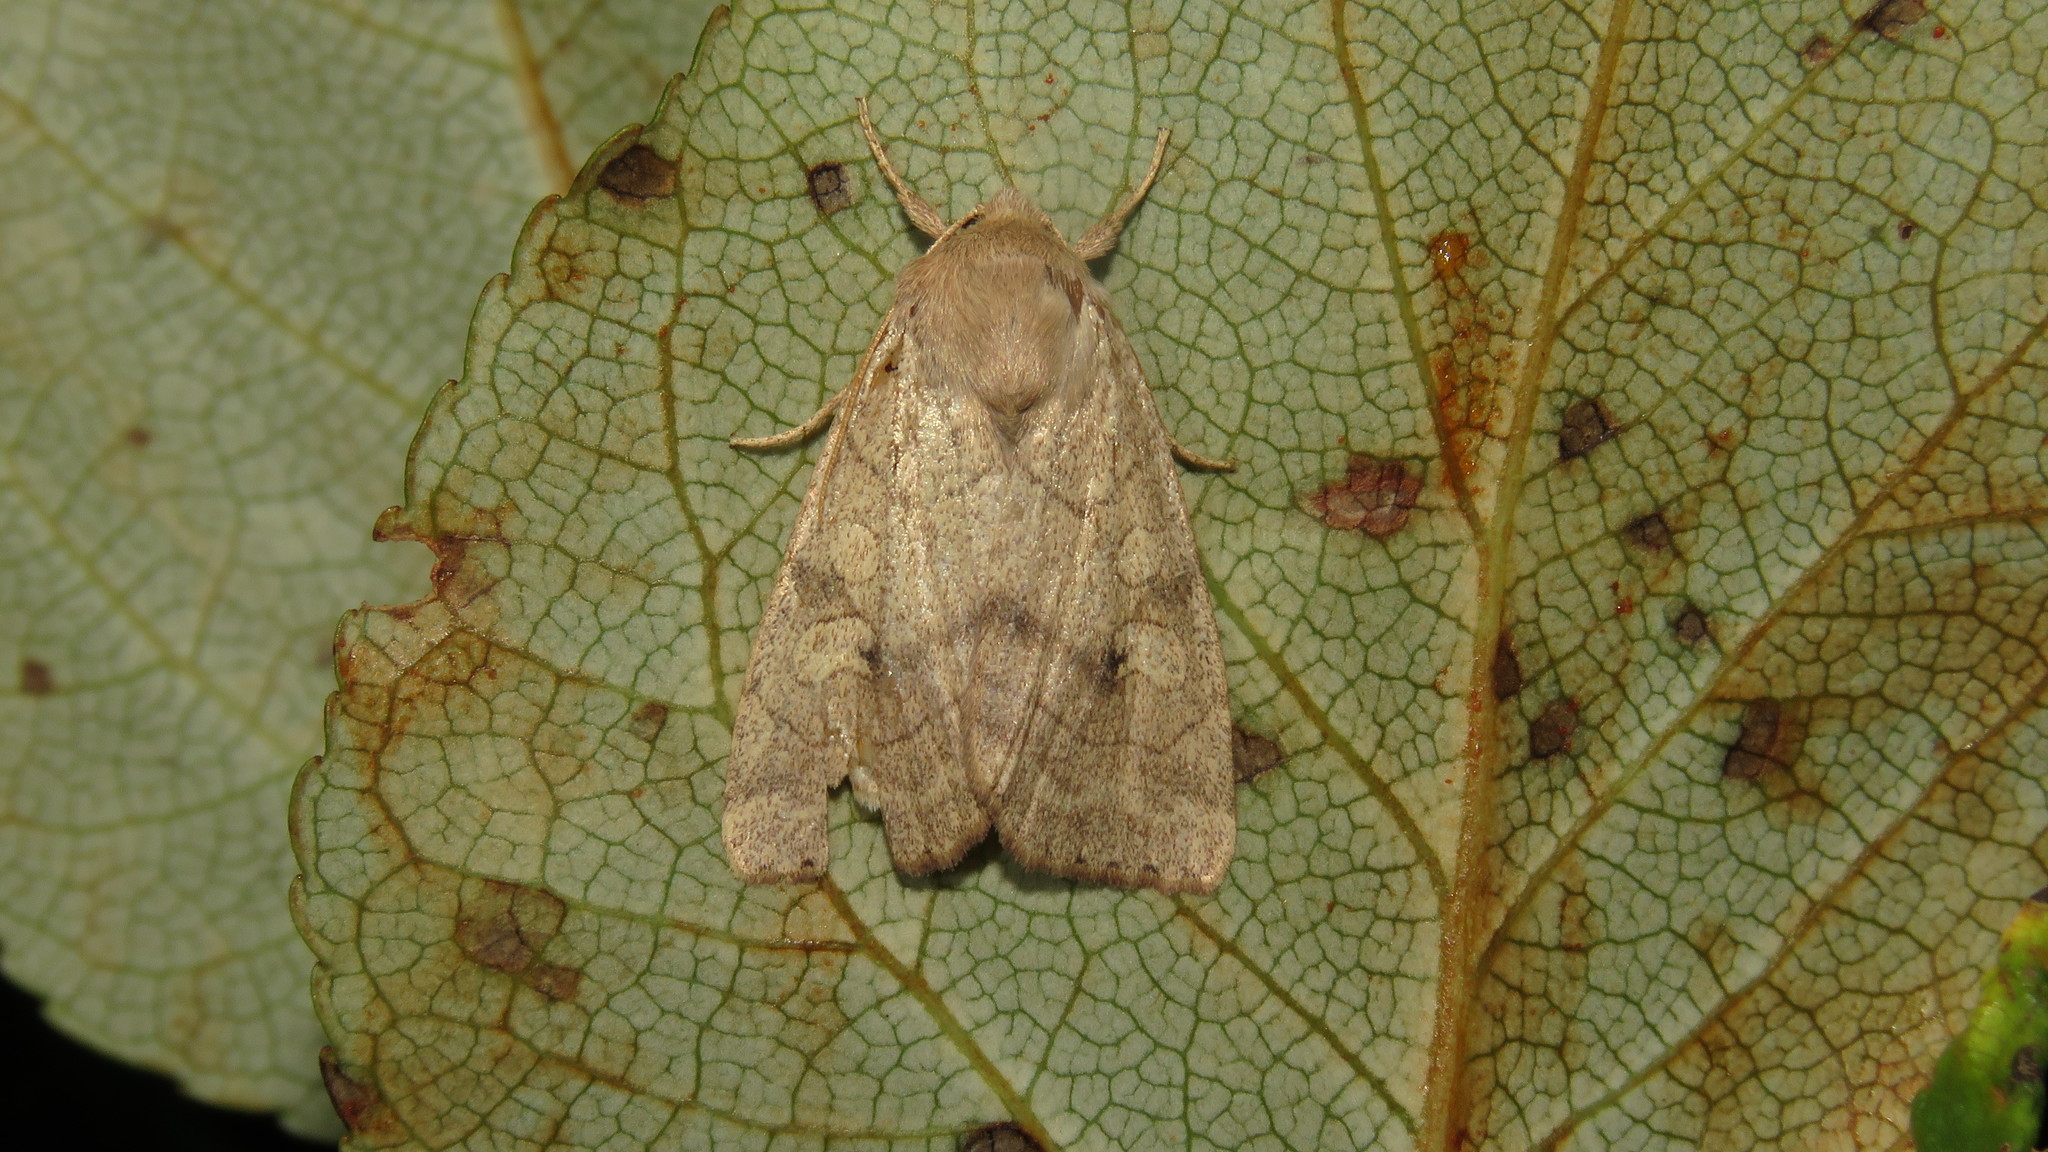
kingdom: Animalia
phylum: Arthropoda
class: Insecta
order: Lepidoptera
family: Noctuidae
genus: Enargia
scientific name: Enargia infumata
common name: Smoked sallow
